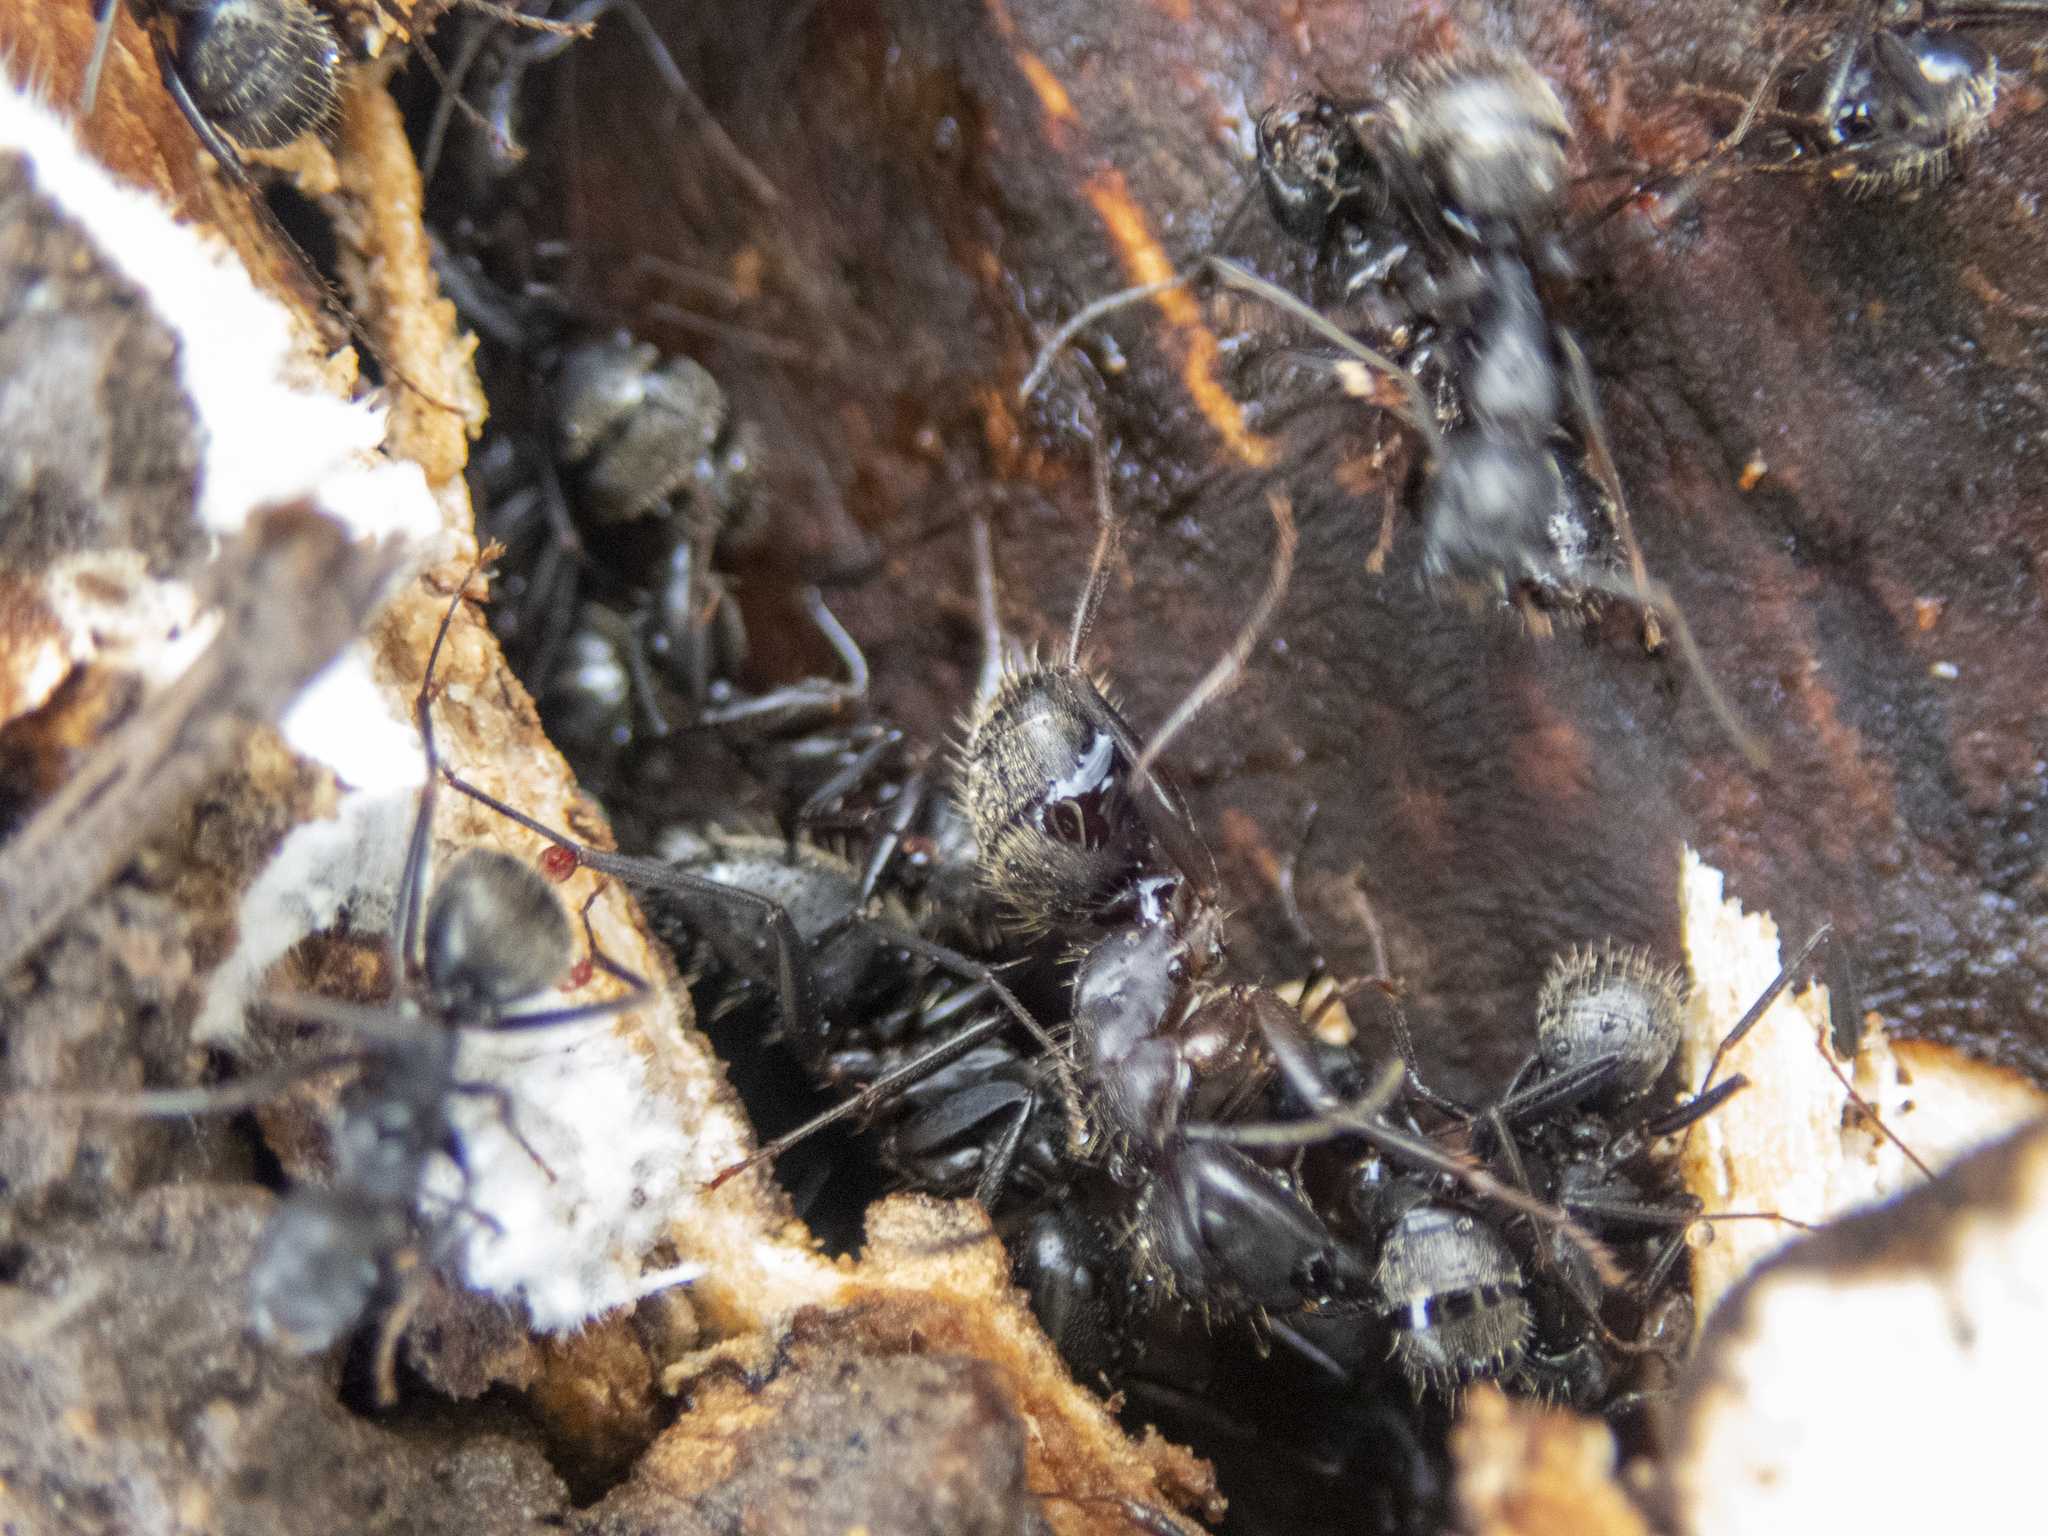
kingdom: Animalia
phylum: Arthropoda
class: Insecta
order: Hymenoptera
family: Formicidae
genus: Camponotus
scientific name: Camponotus pennsylvanicus
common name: Black carpenter ant
